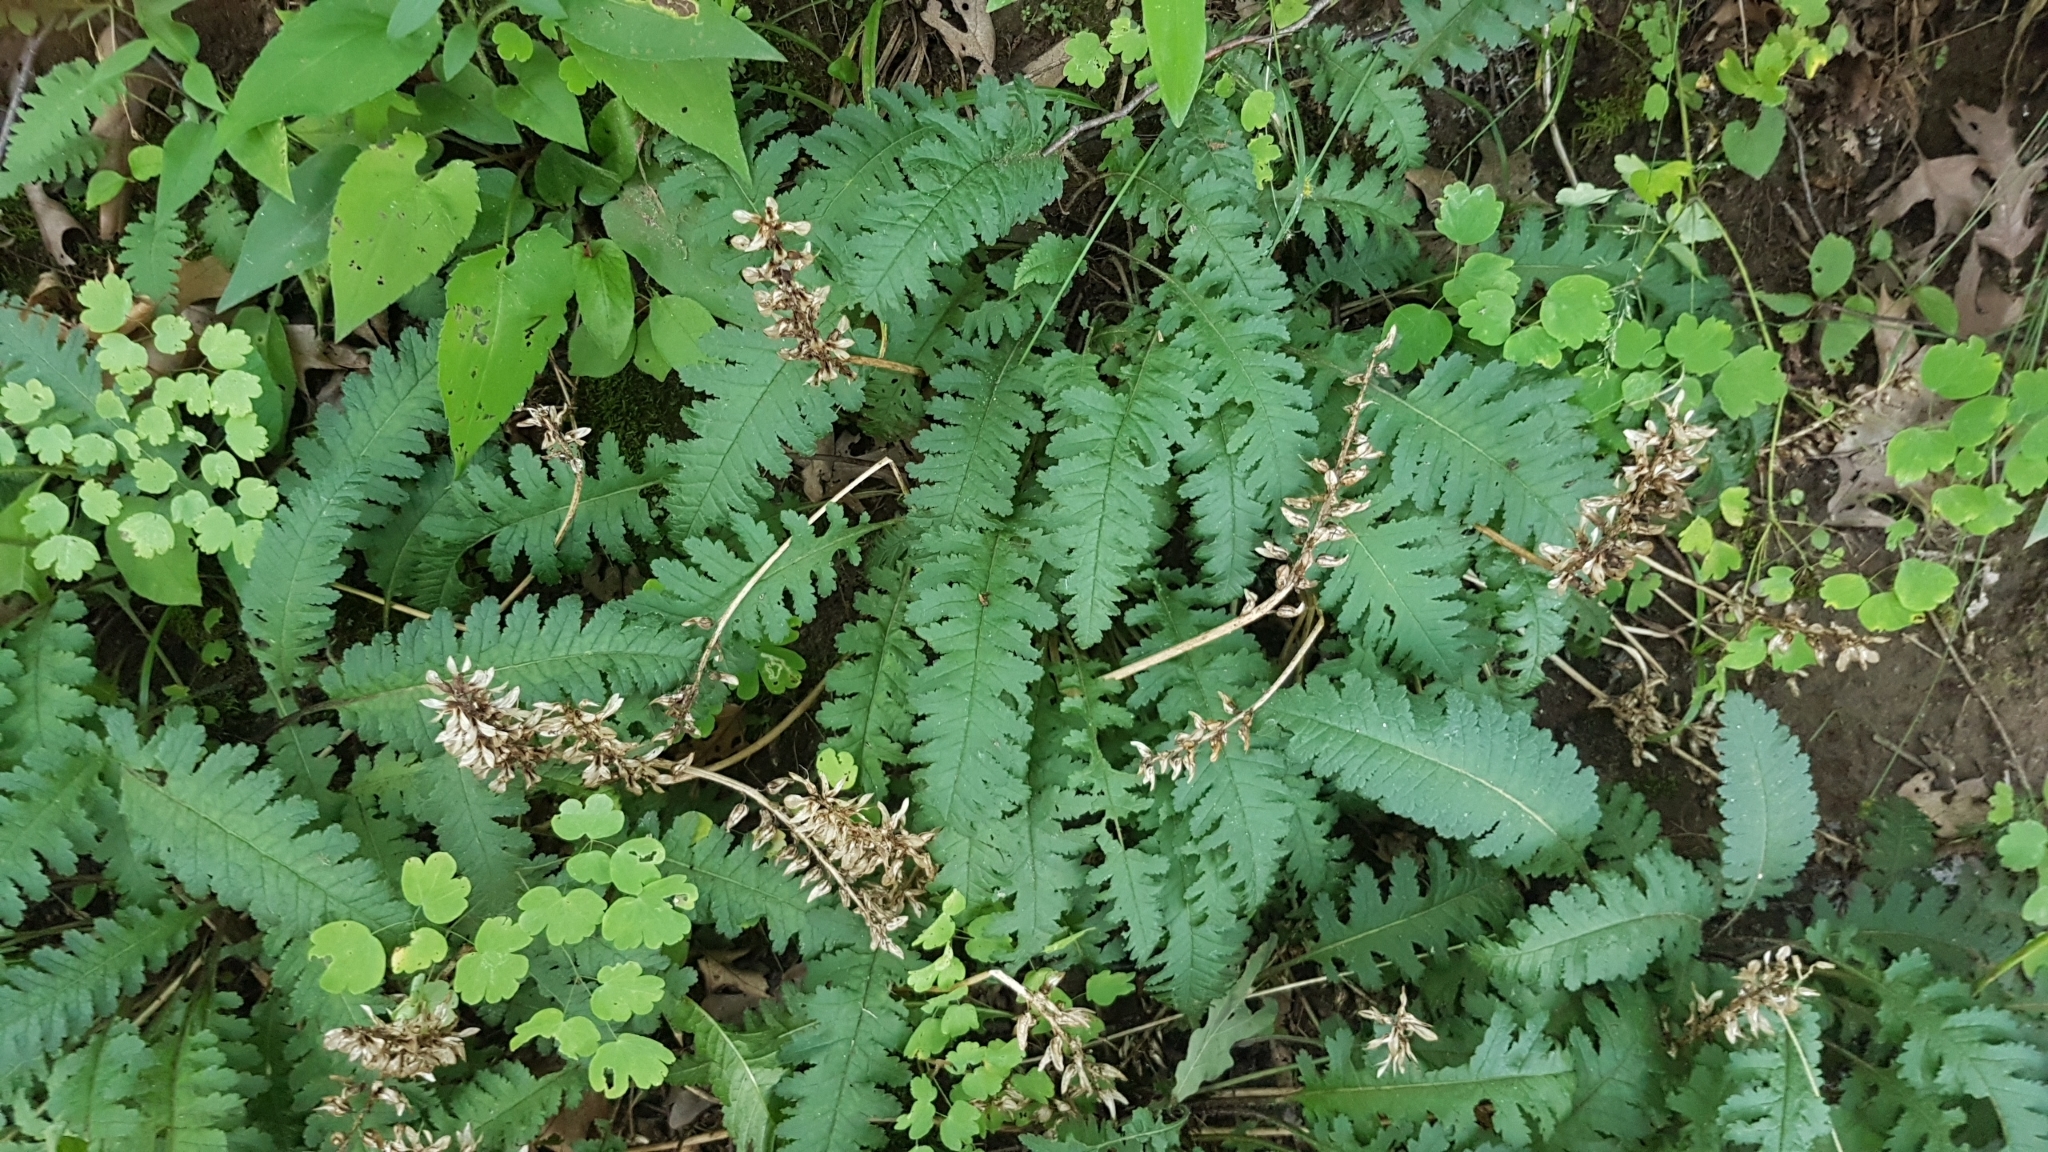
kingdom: Plantae
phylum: Tracheophyta
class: Magnoliopsida
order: Lamiales
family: Orobanchaceae
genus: Pedicularis
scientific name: Pedicularis canadensis
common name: Early lousewort
